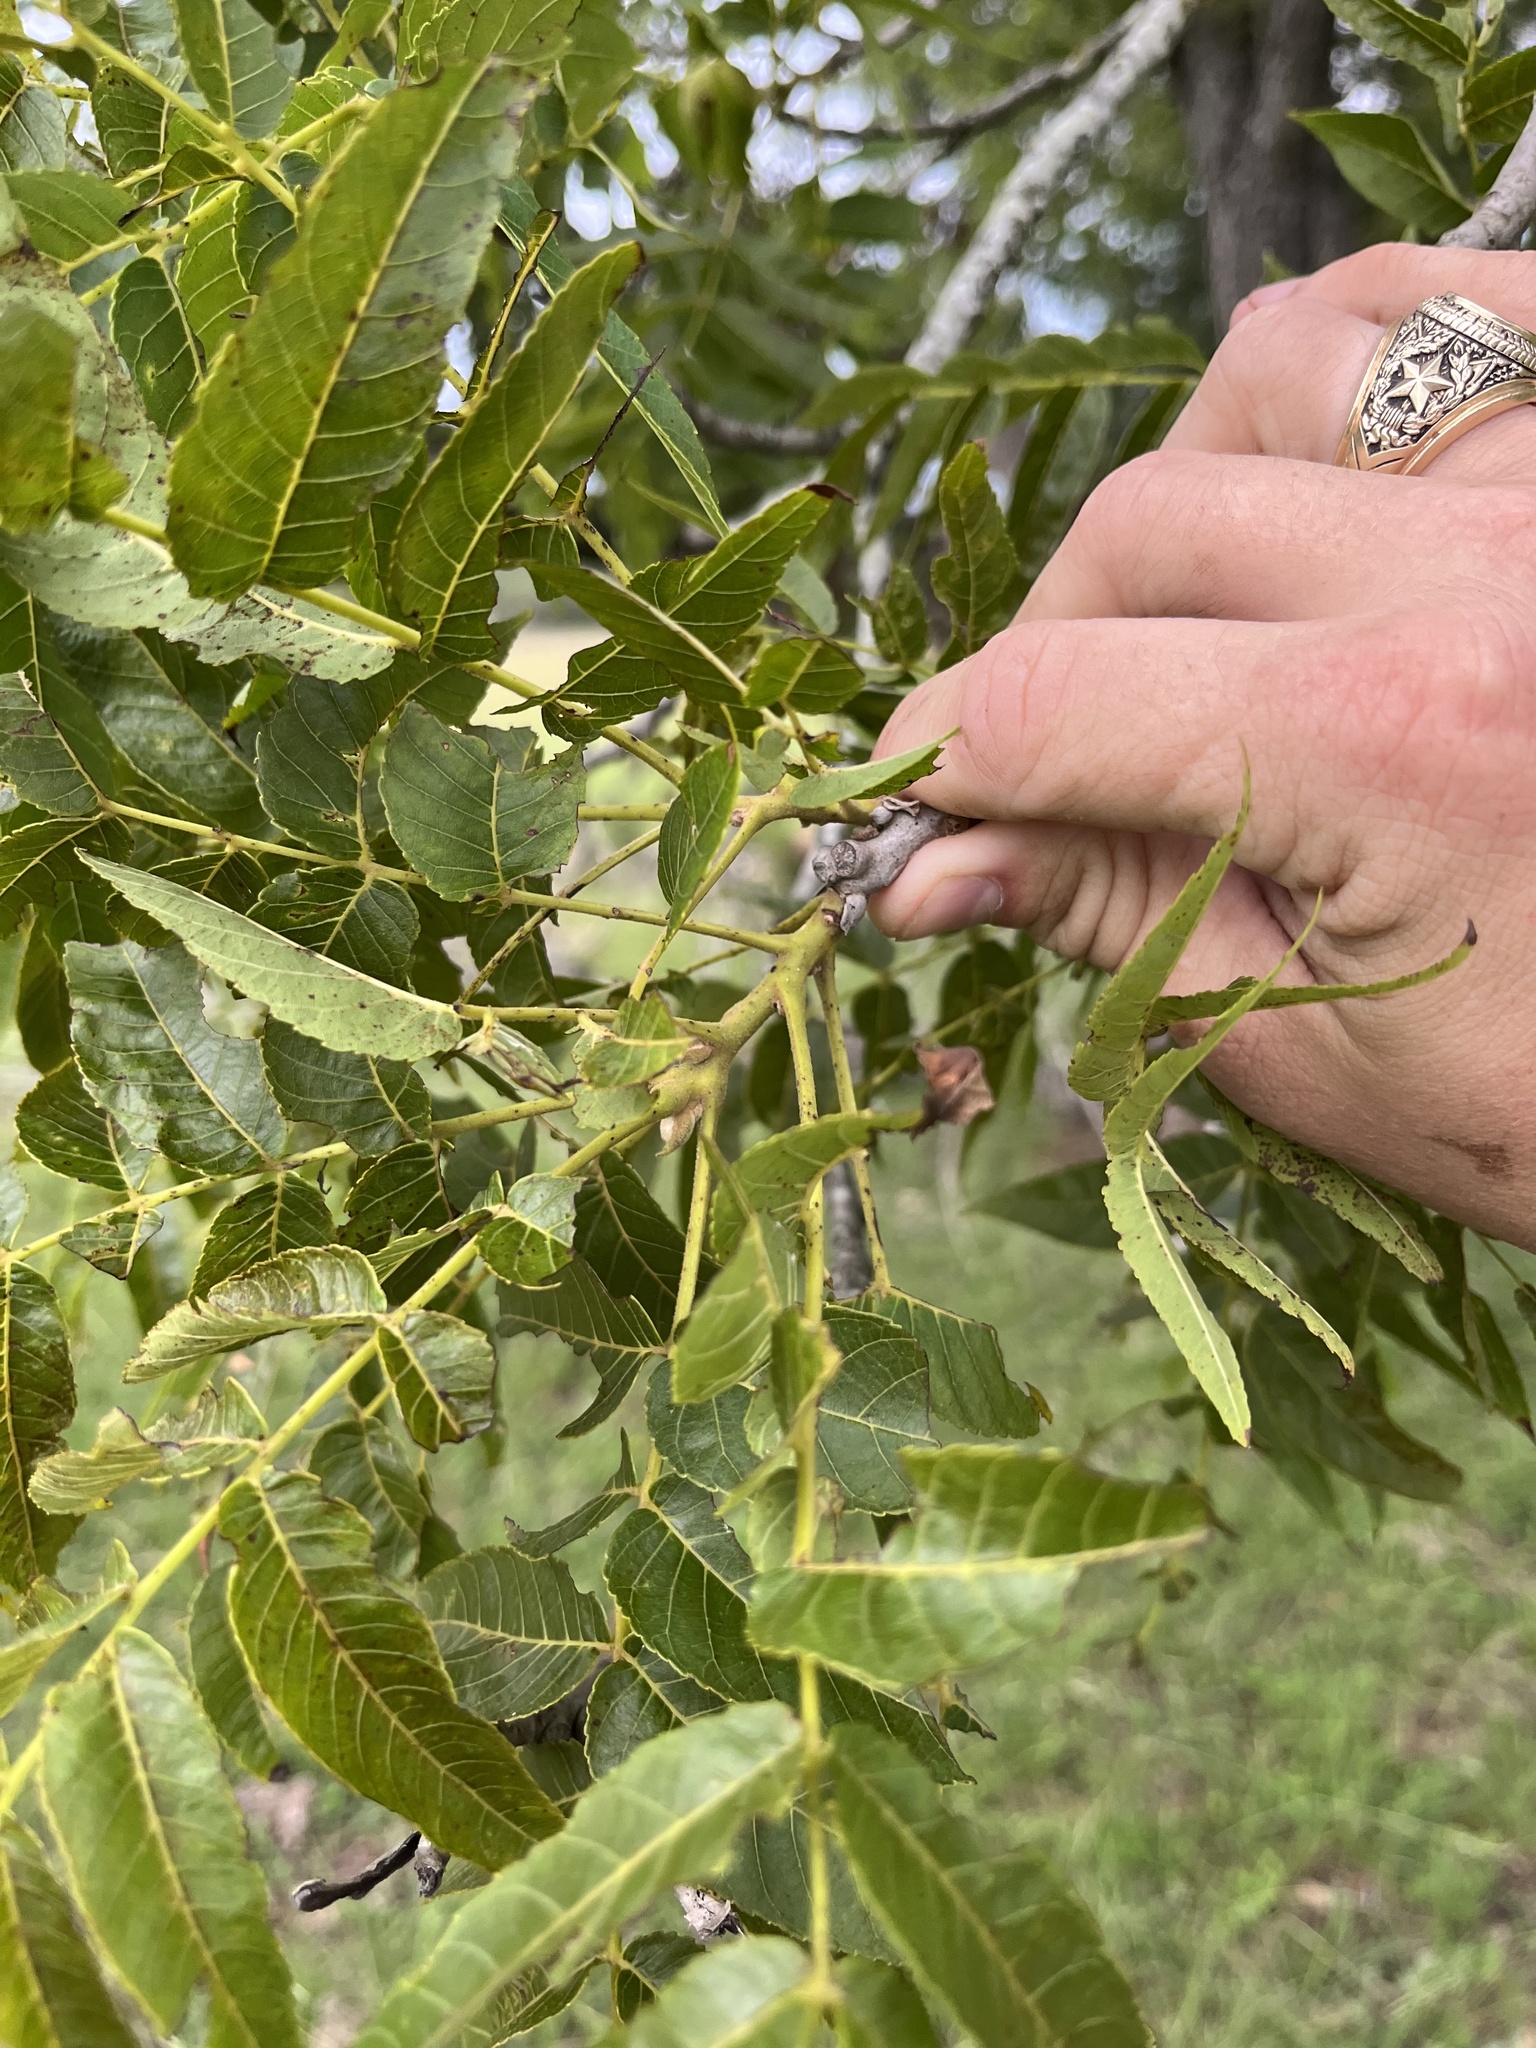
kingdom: Plantae
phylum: Tracheophyta
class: Magnoliopsida
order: Fagales
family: Juglandaceae
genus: Juglans
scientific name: Juglans major
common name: Arizona walnut
